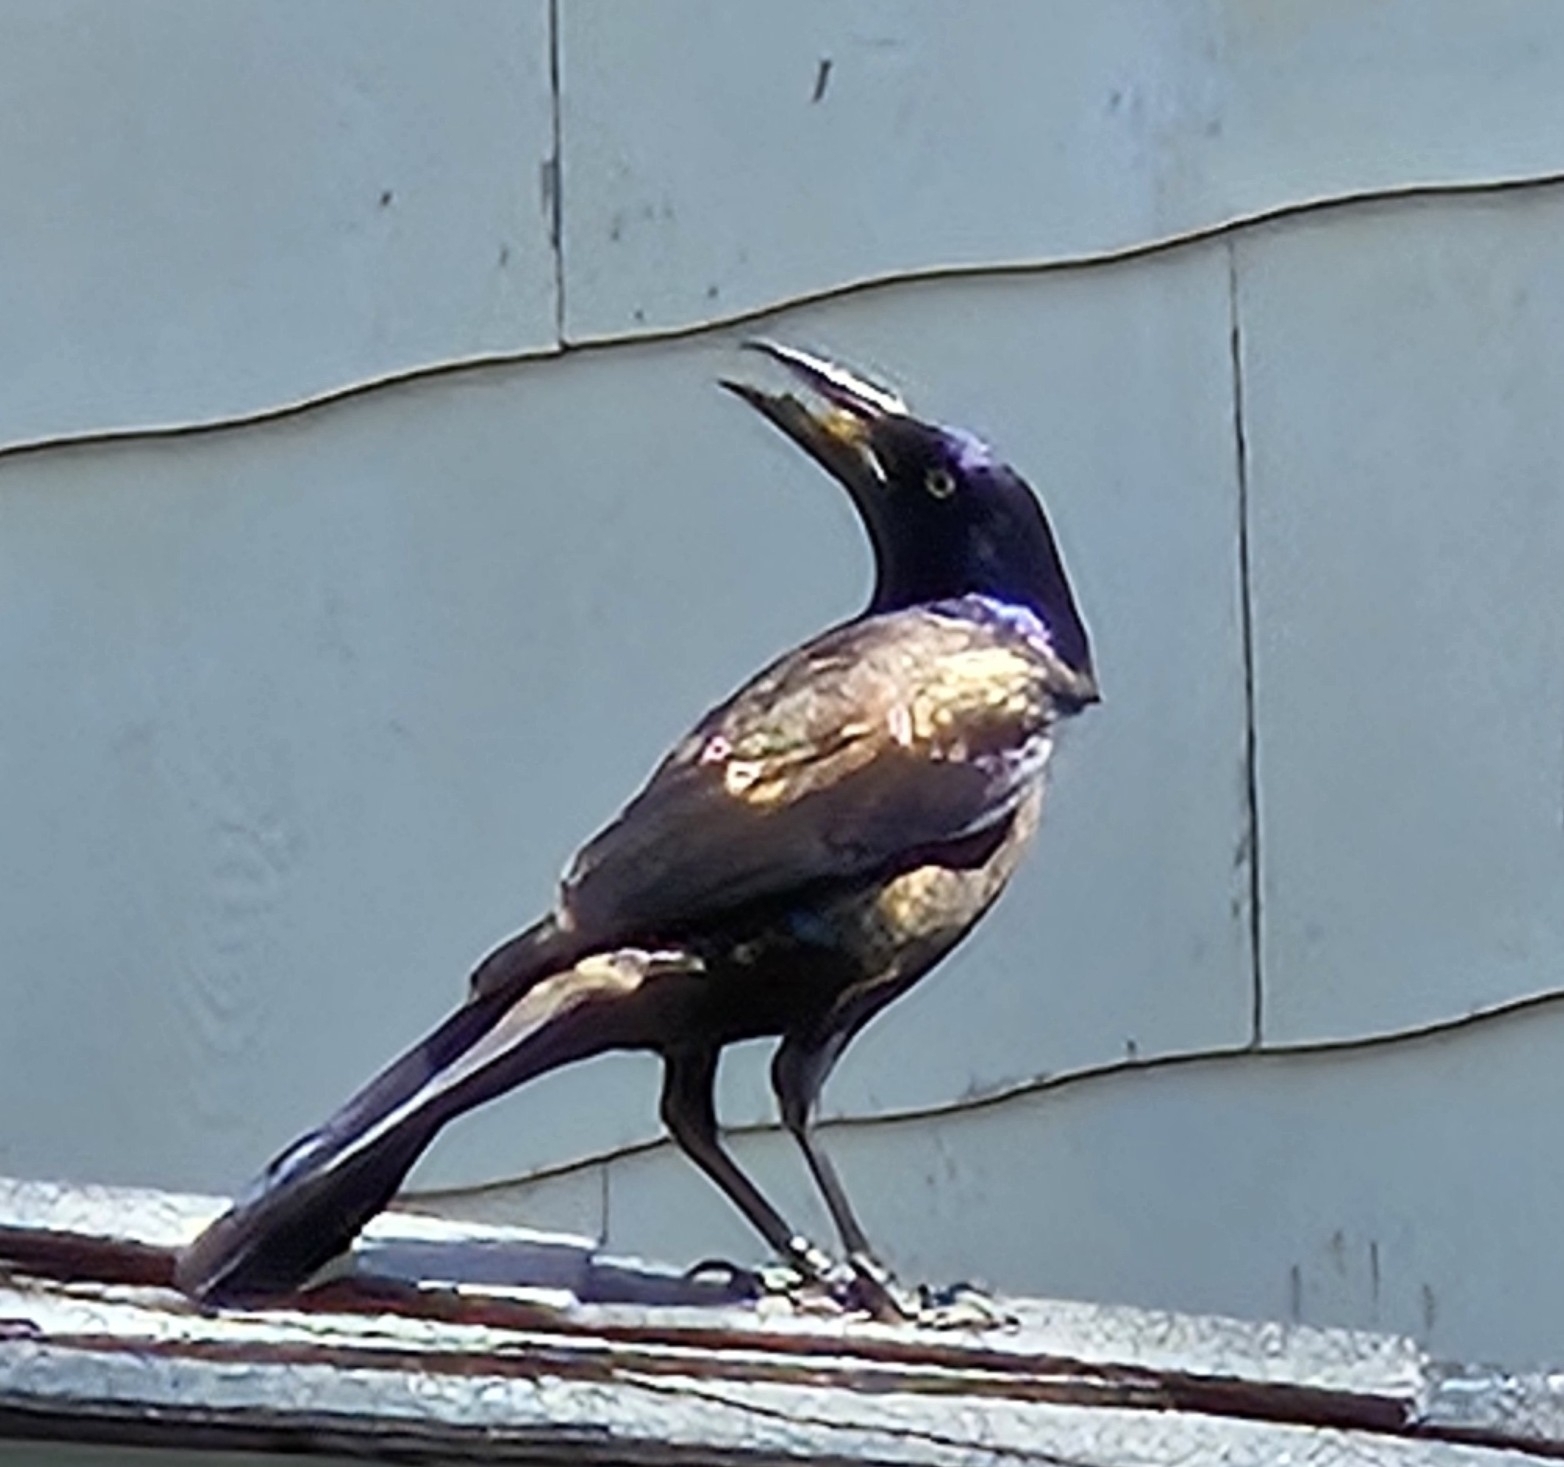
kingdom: Animalia
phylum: Chordata
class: Aves
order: Passeriformes
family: Icteridae
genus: Quiscalus
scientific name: Quiscalus quiscula
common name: Common grackle
